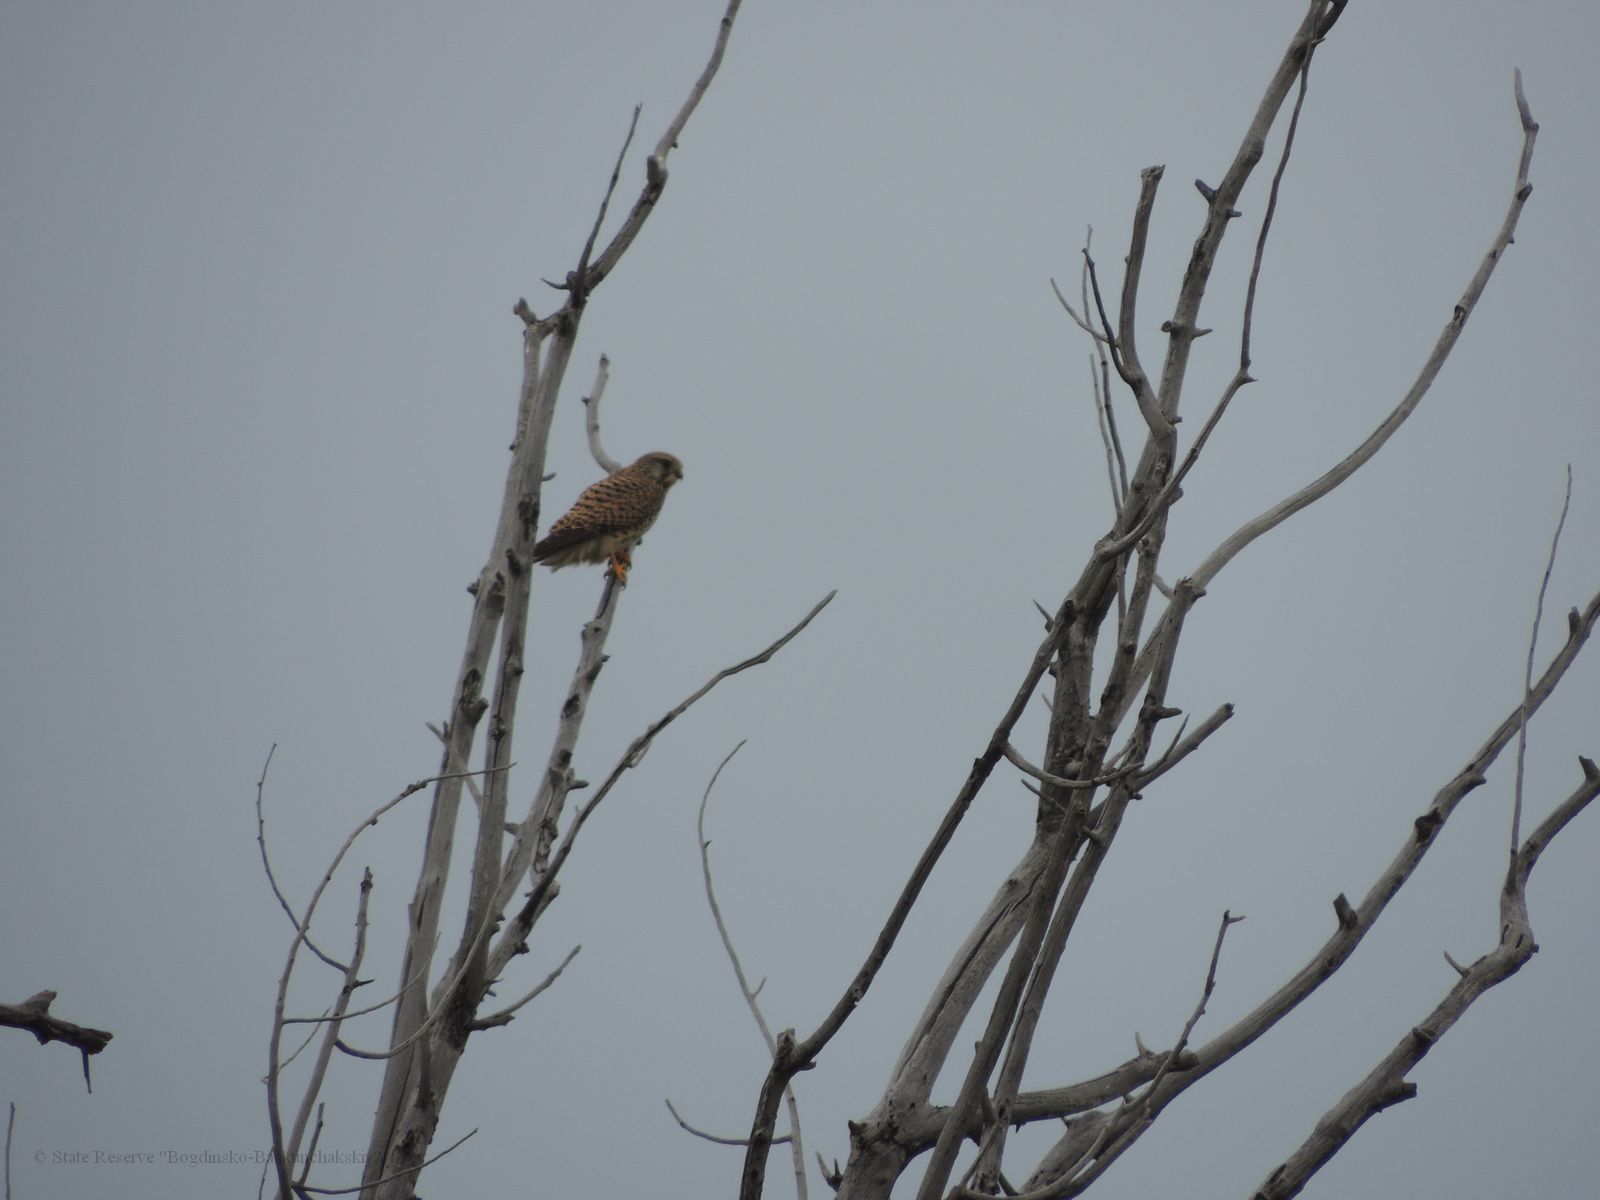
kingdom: Animalia
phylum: Chordata
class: Aves
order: Falconiformes
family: Falconidae
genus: Falco
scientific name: Falco tinnunculus
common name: Common kestrel
